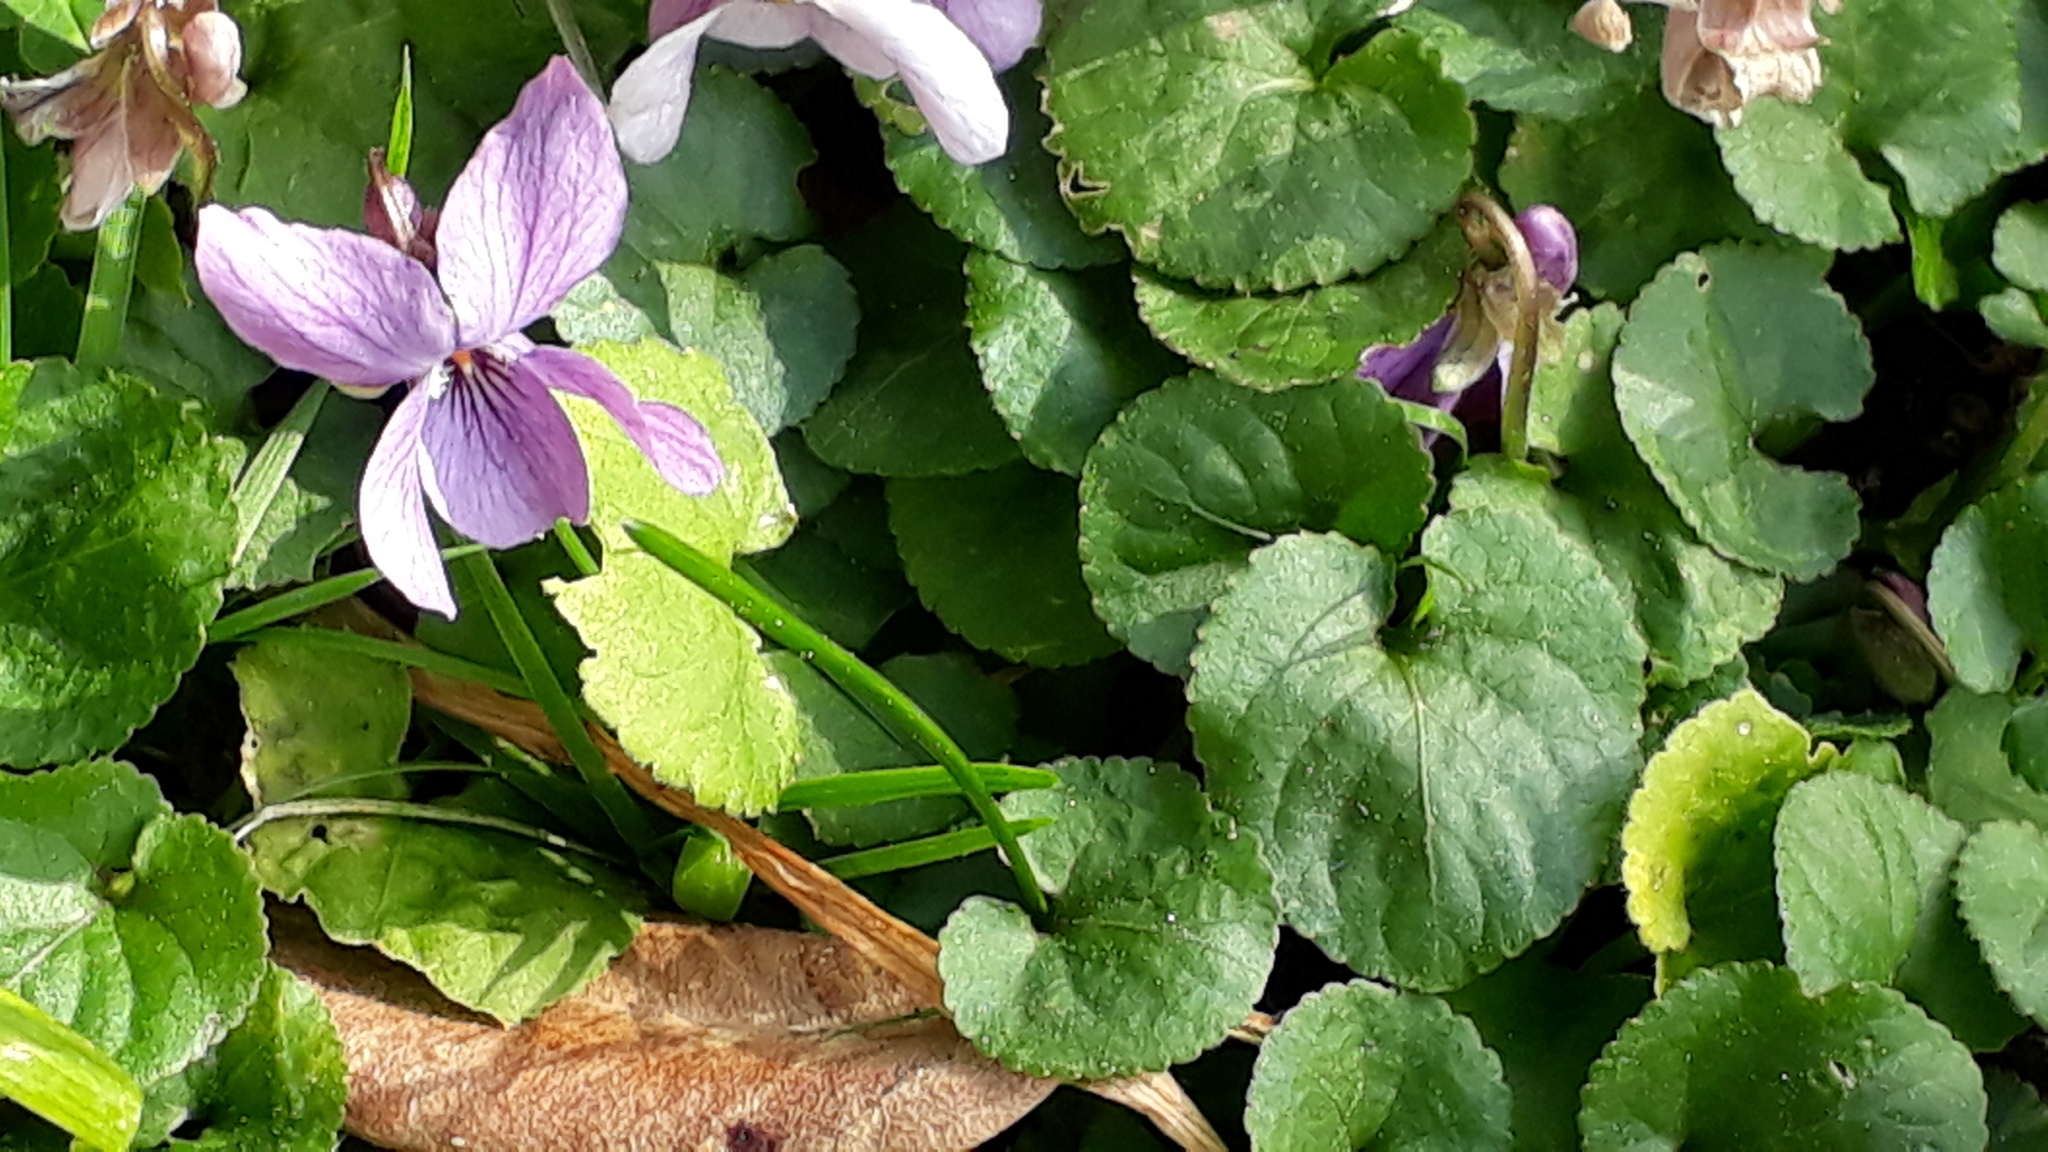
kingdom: Plantae
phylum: Tracheophyta
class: Magnoliopsida
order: Malpighiales
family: Violaceae
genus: Viola
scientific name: Viola odorata
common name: Sweet violet
